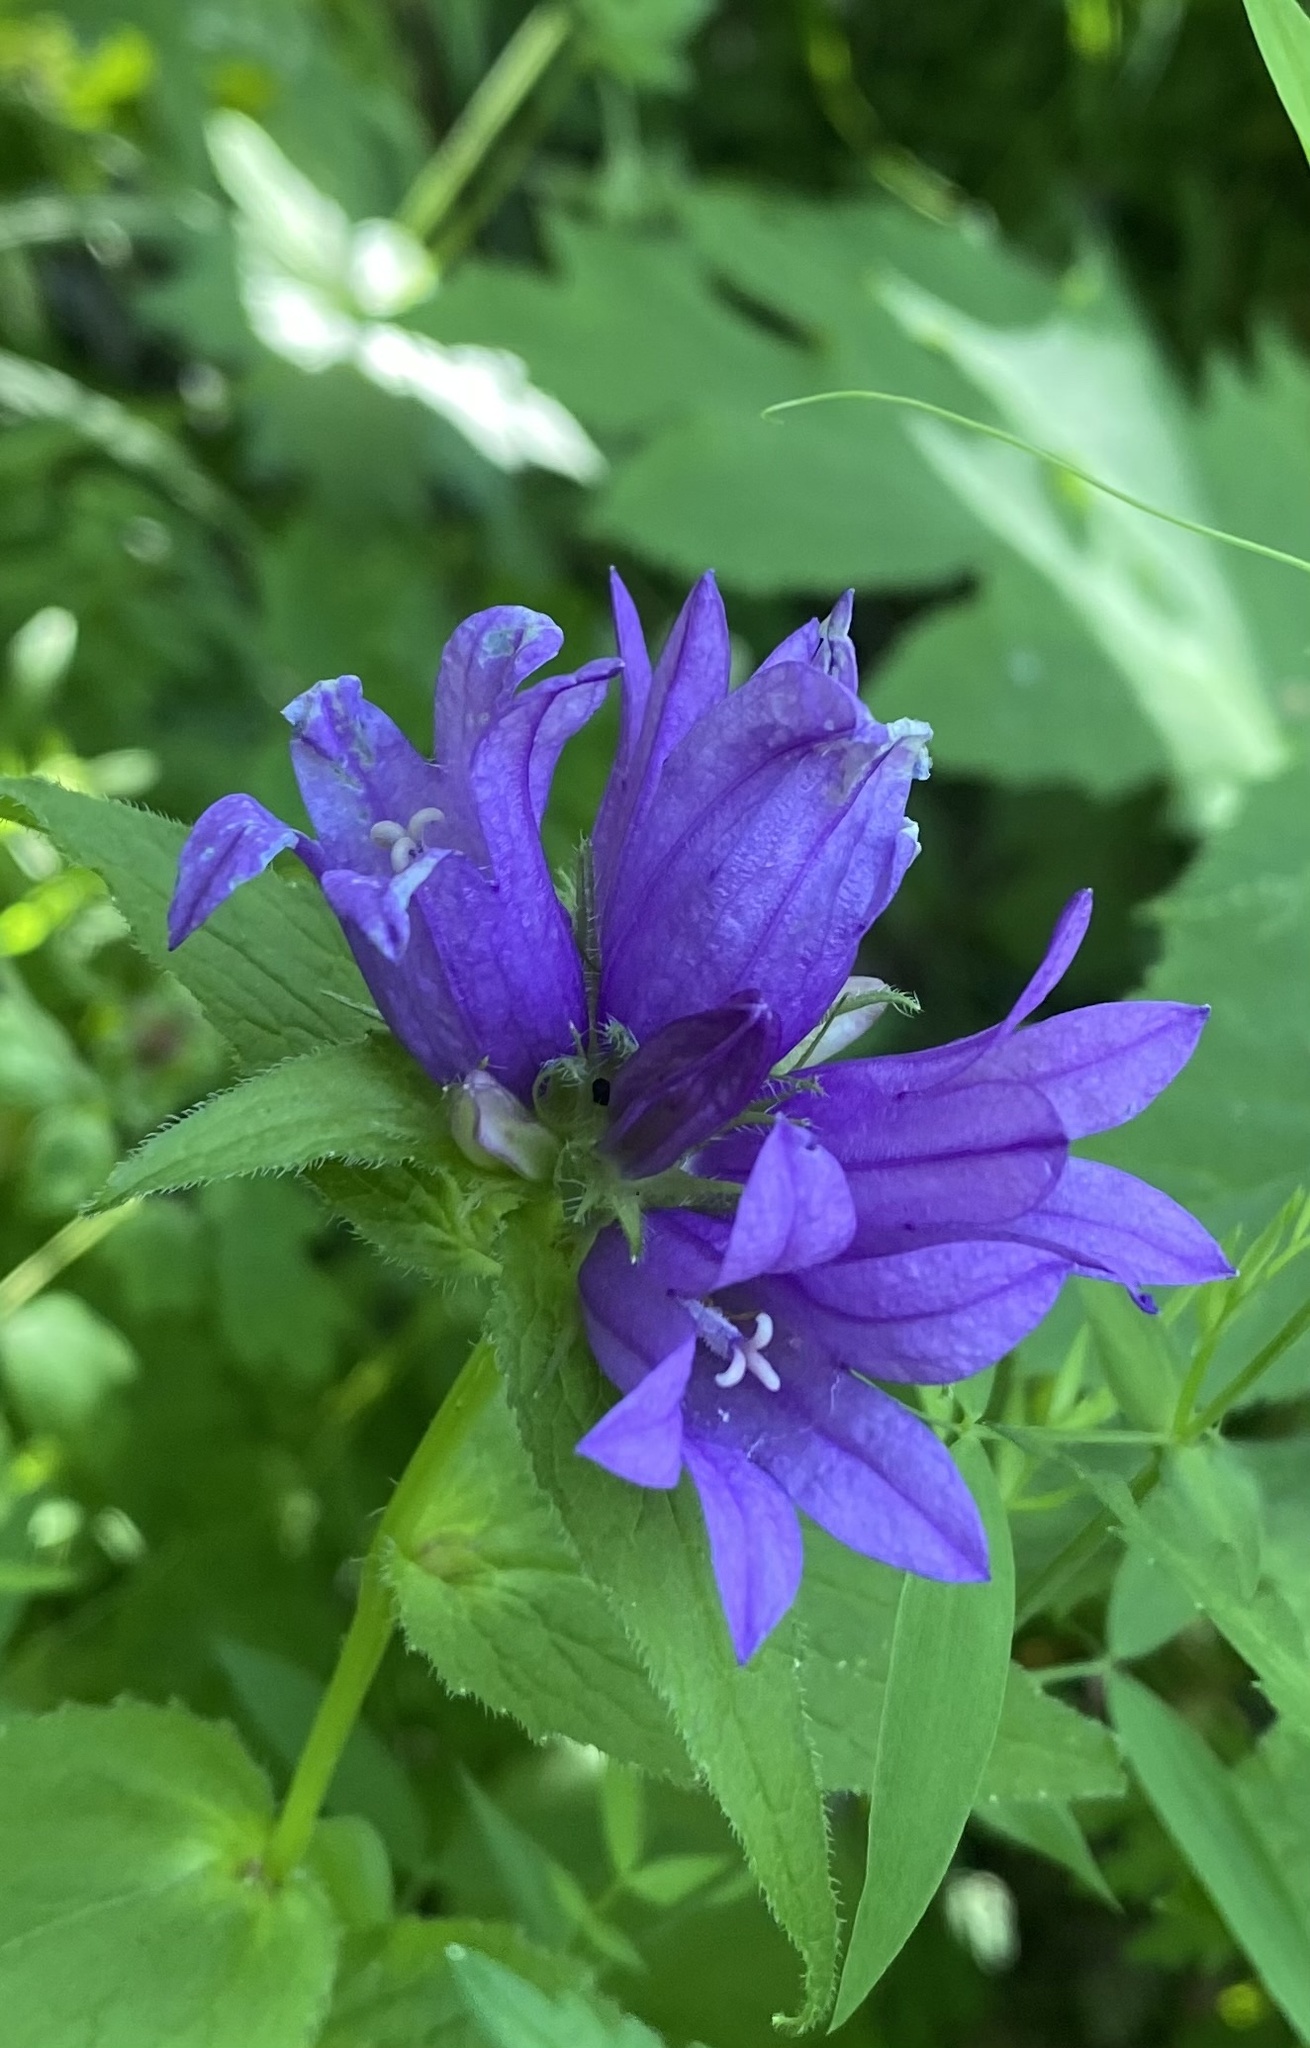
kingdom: Plantae
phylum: Tracheophyta
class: Magnoliopsida
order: Asterales
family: Campanulaceae
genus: Campanula
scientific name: Campanula glomerata
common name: Clustered bellflower
